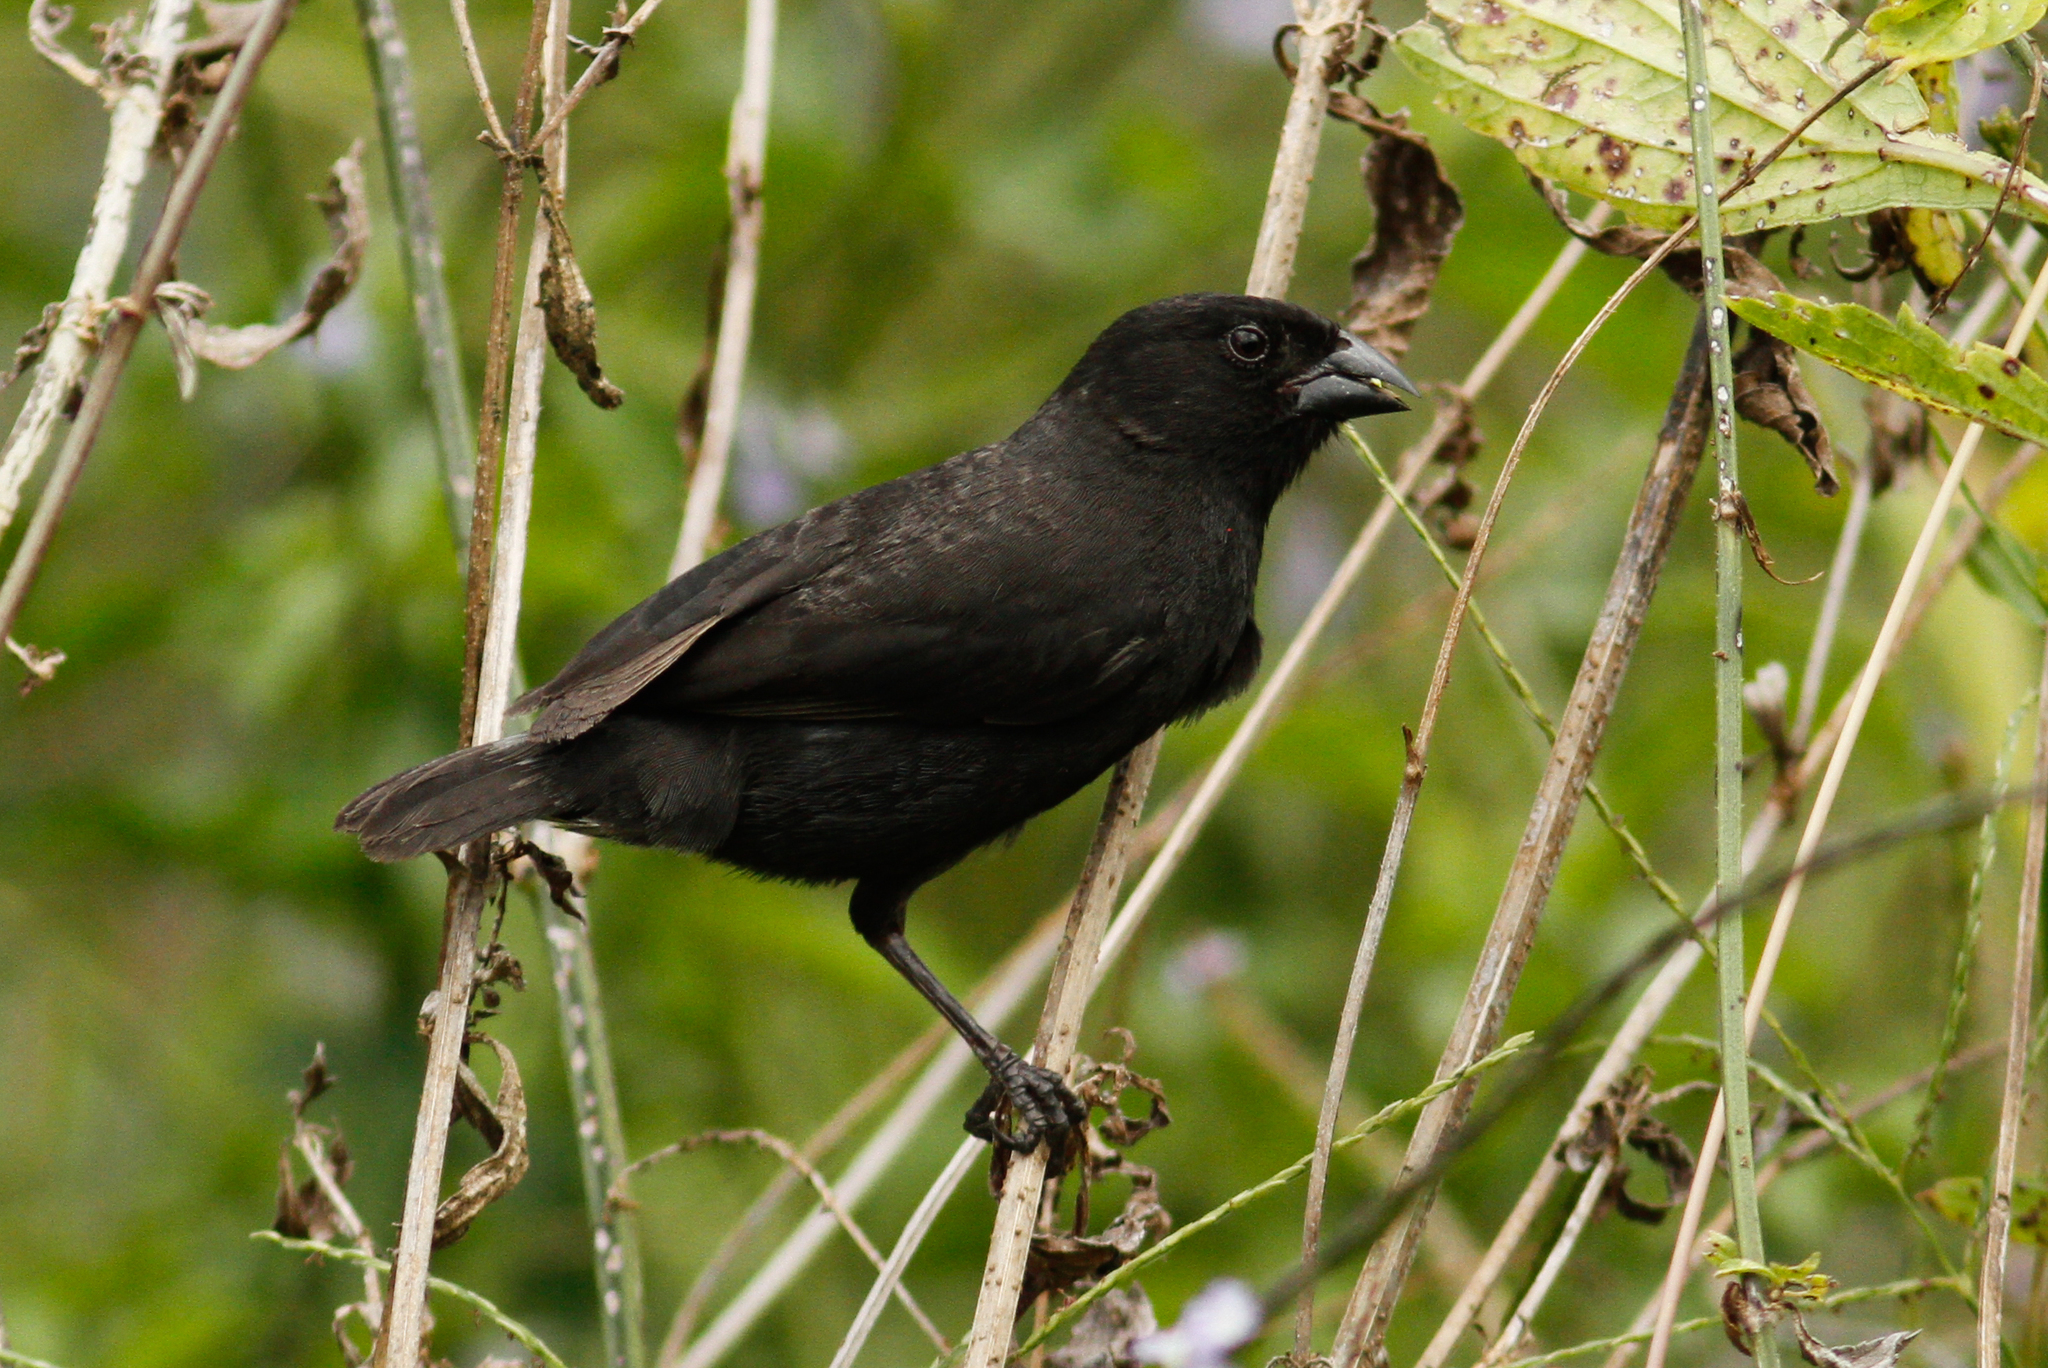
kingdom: Animalia
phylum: Chordata
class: Aves
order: Passeriformes
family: Thraupidae
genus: Geospiza
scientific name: Geospiza fuliginosa
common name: Small ground finch
